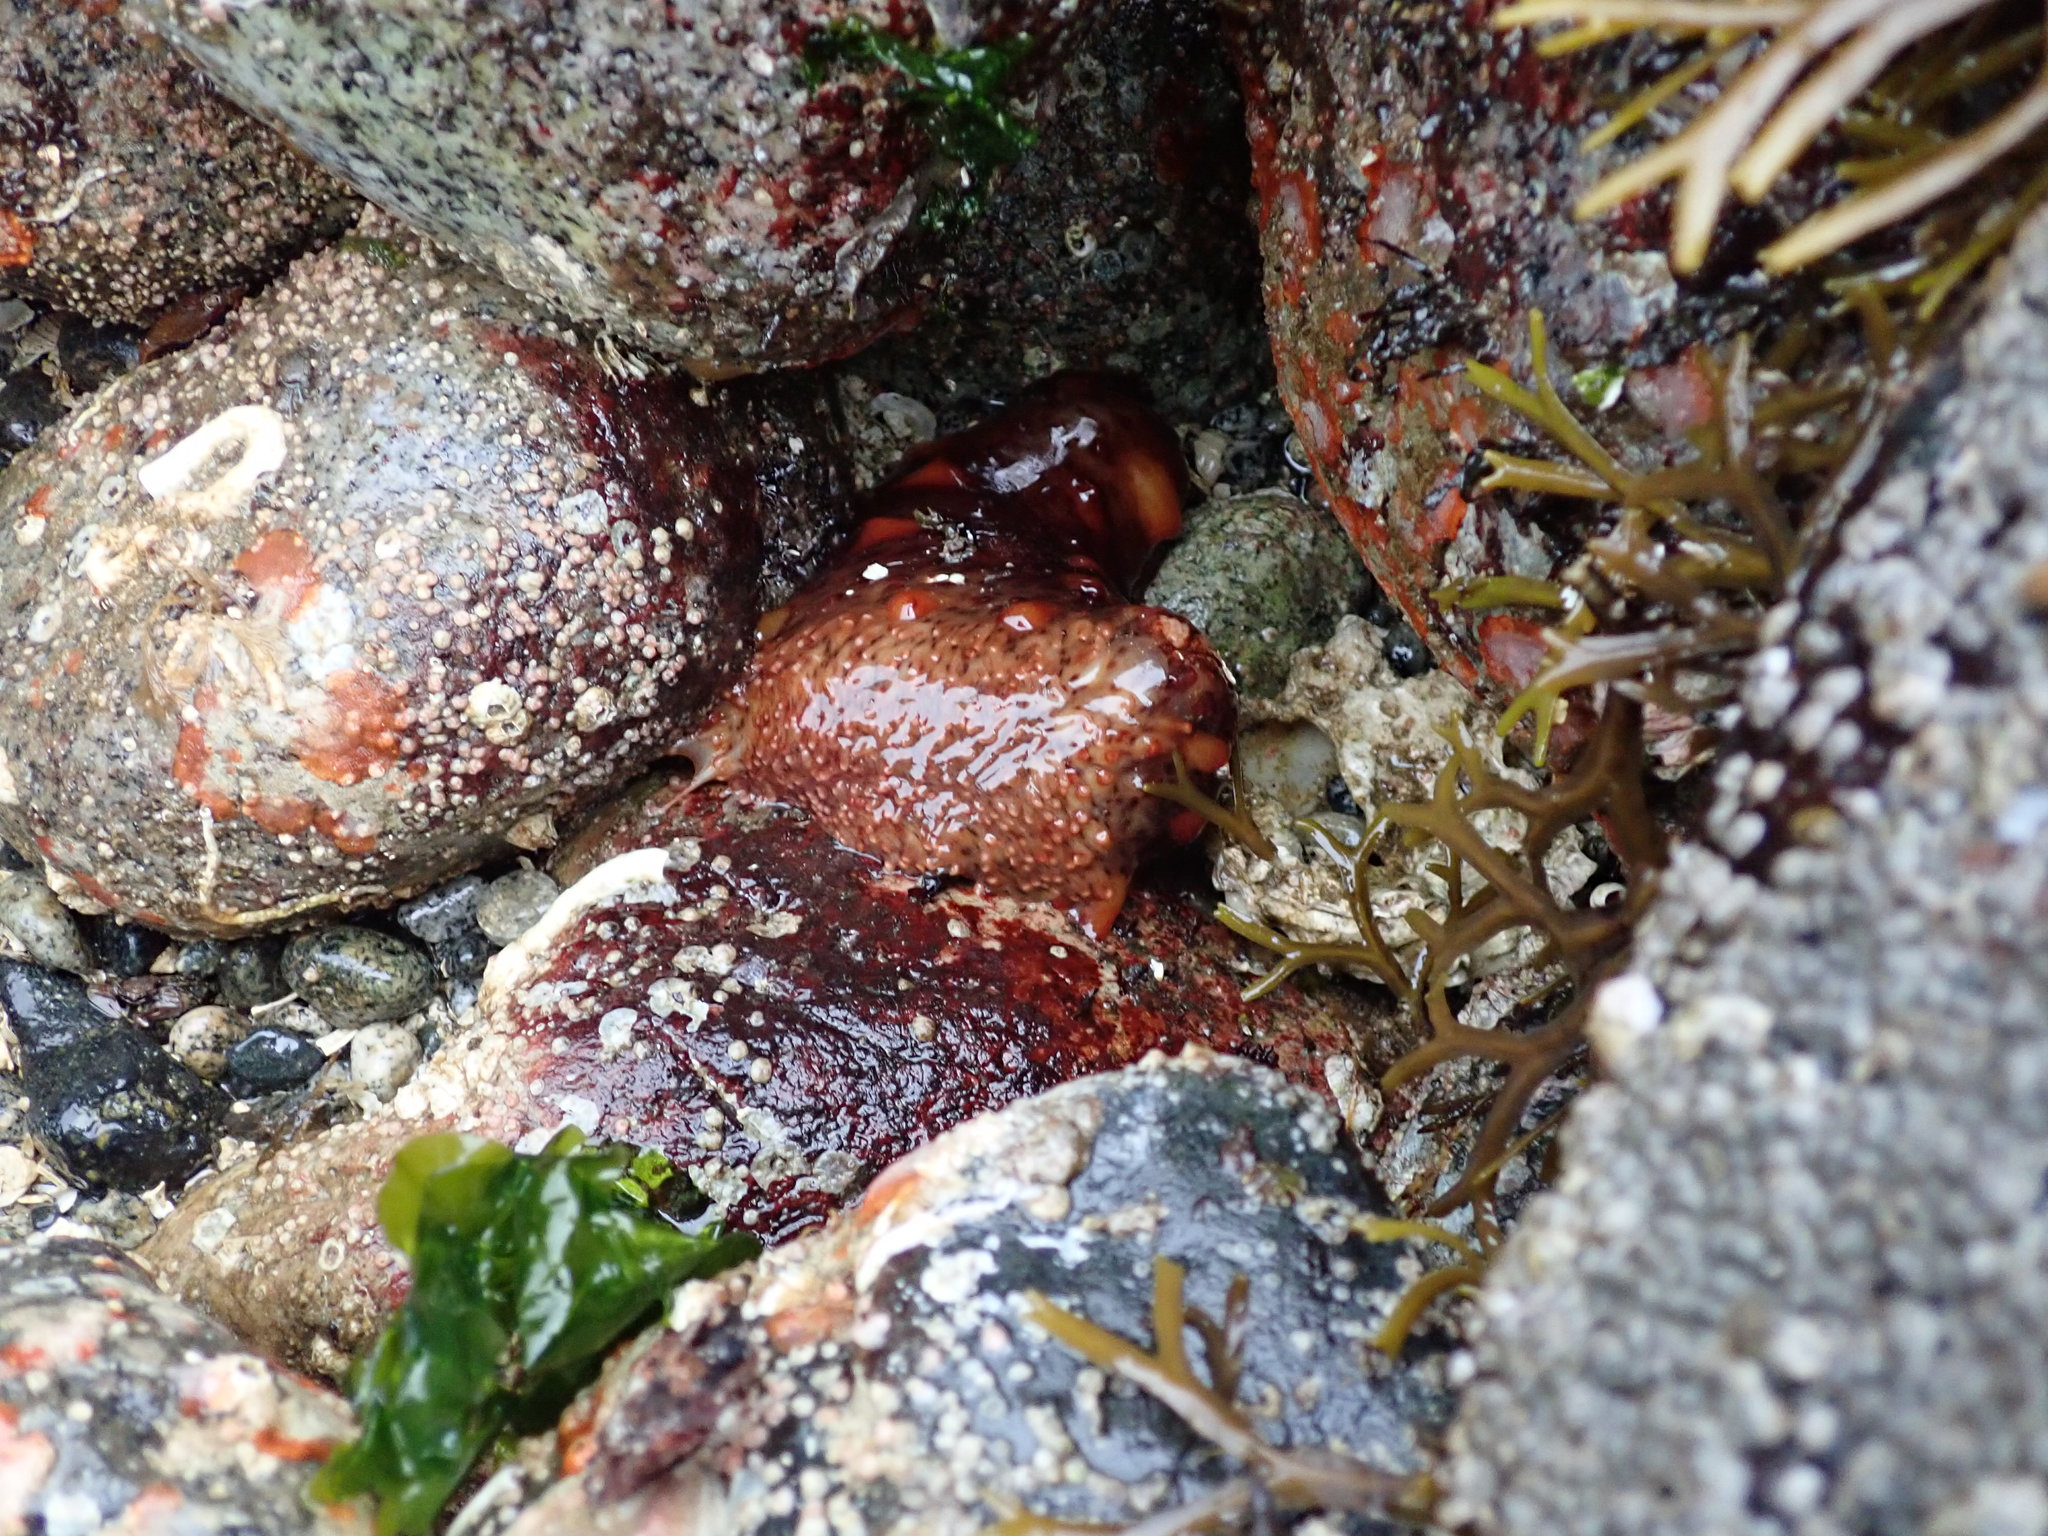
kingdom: Animalia
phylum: Echinodermata
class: Holothuroidea
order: Synallactida
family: Stichopodidae
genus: Apostichopus
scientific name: Apostichopus californicus
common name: California sea cucumber
